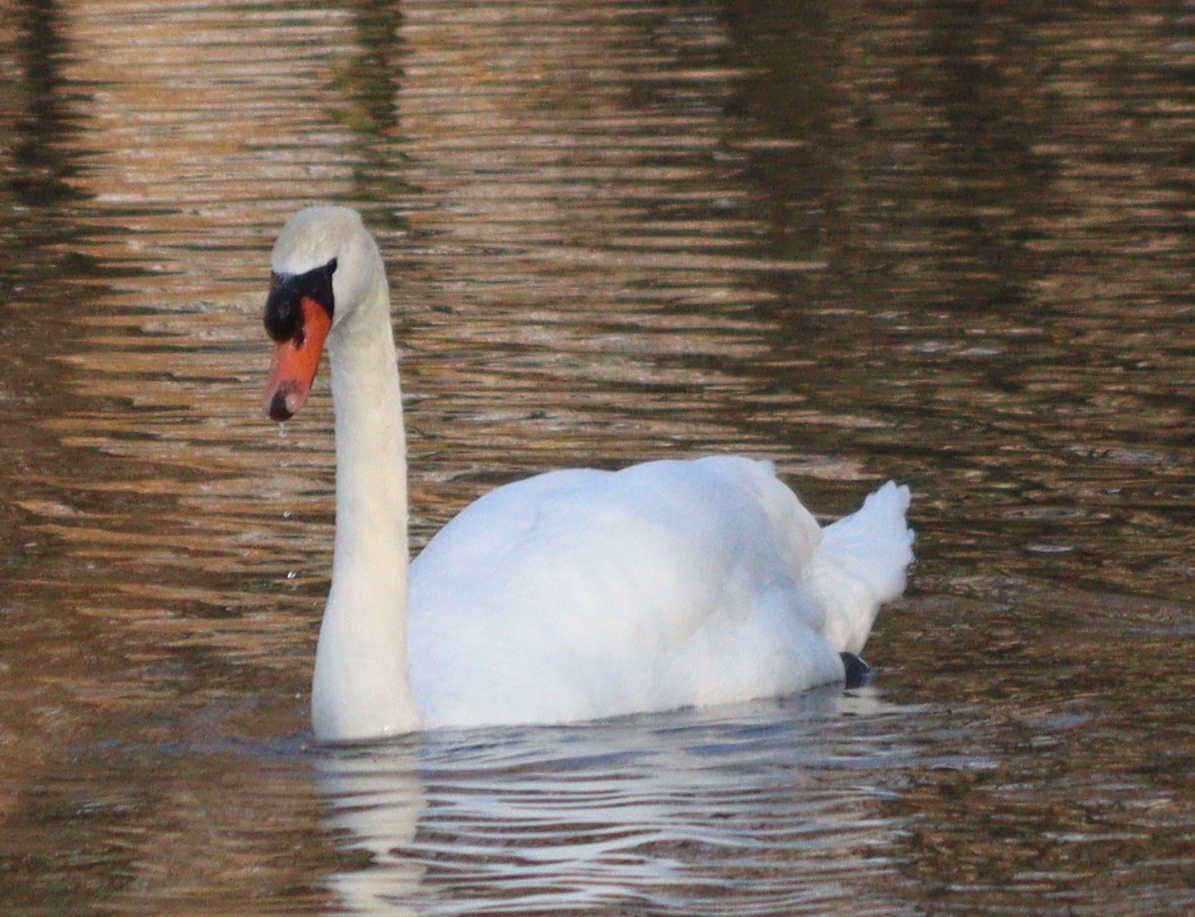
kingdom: Animalia
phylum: Chordata
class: Aves
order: Anseriformes
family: Anatidae
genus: Cygnus
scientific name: Cygnus olor
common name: Mute swan
